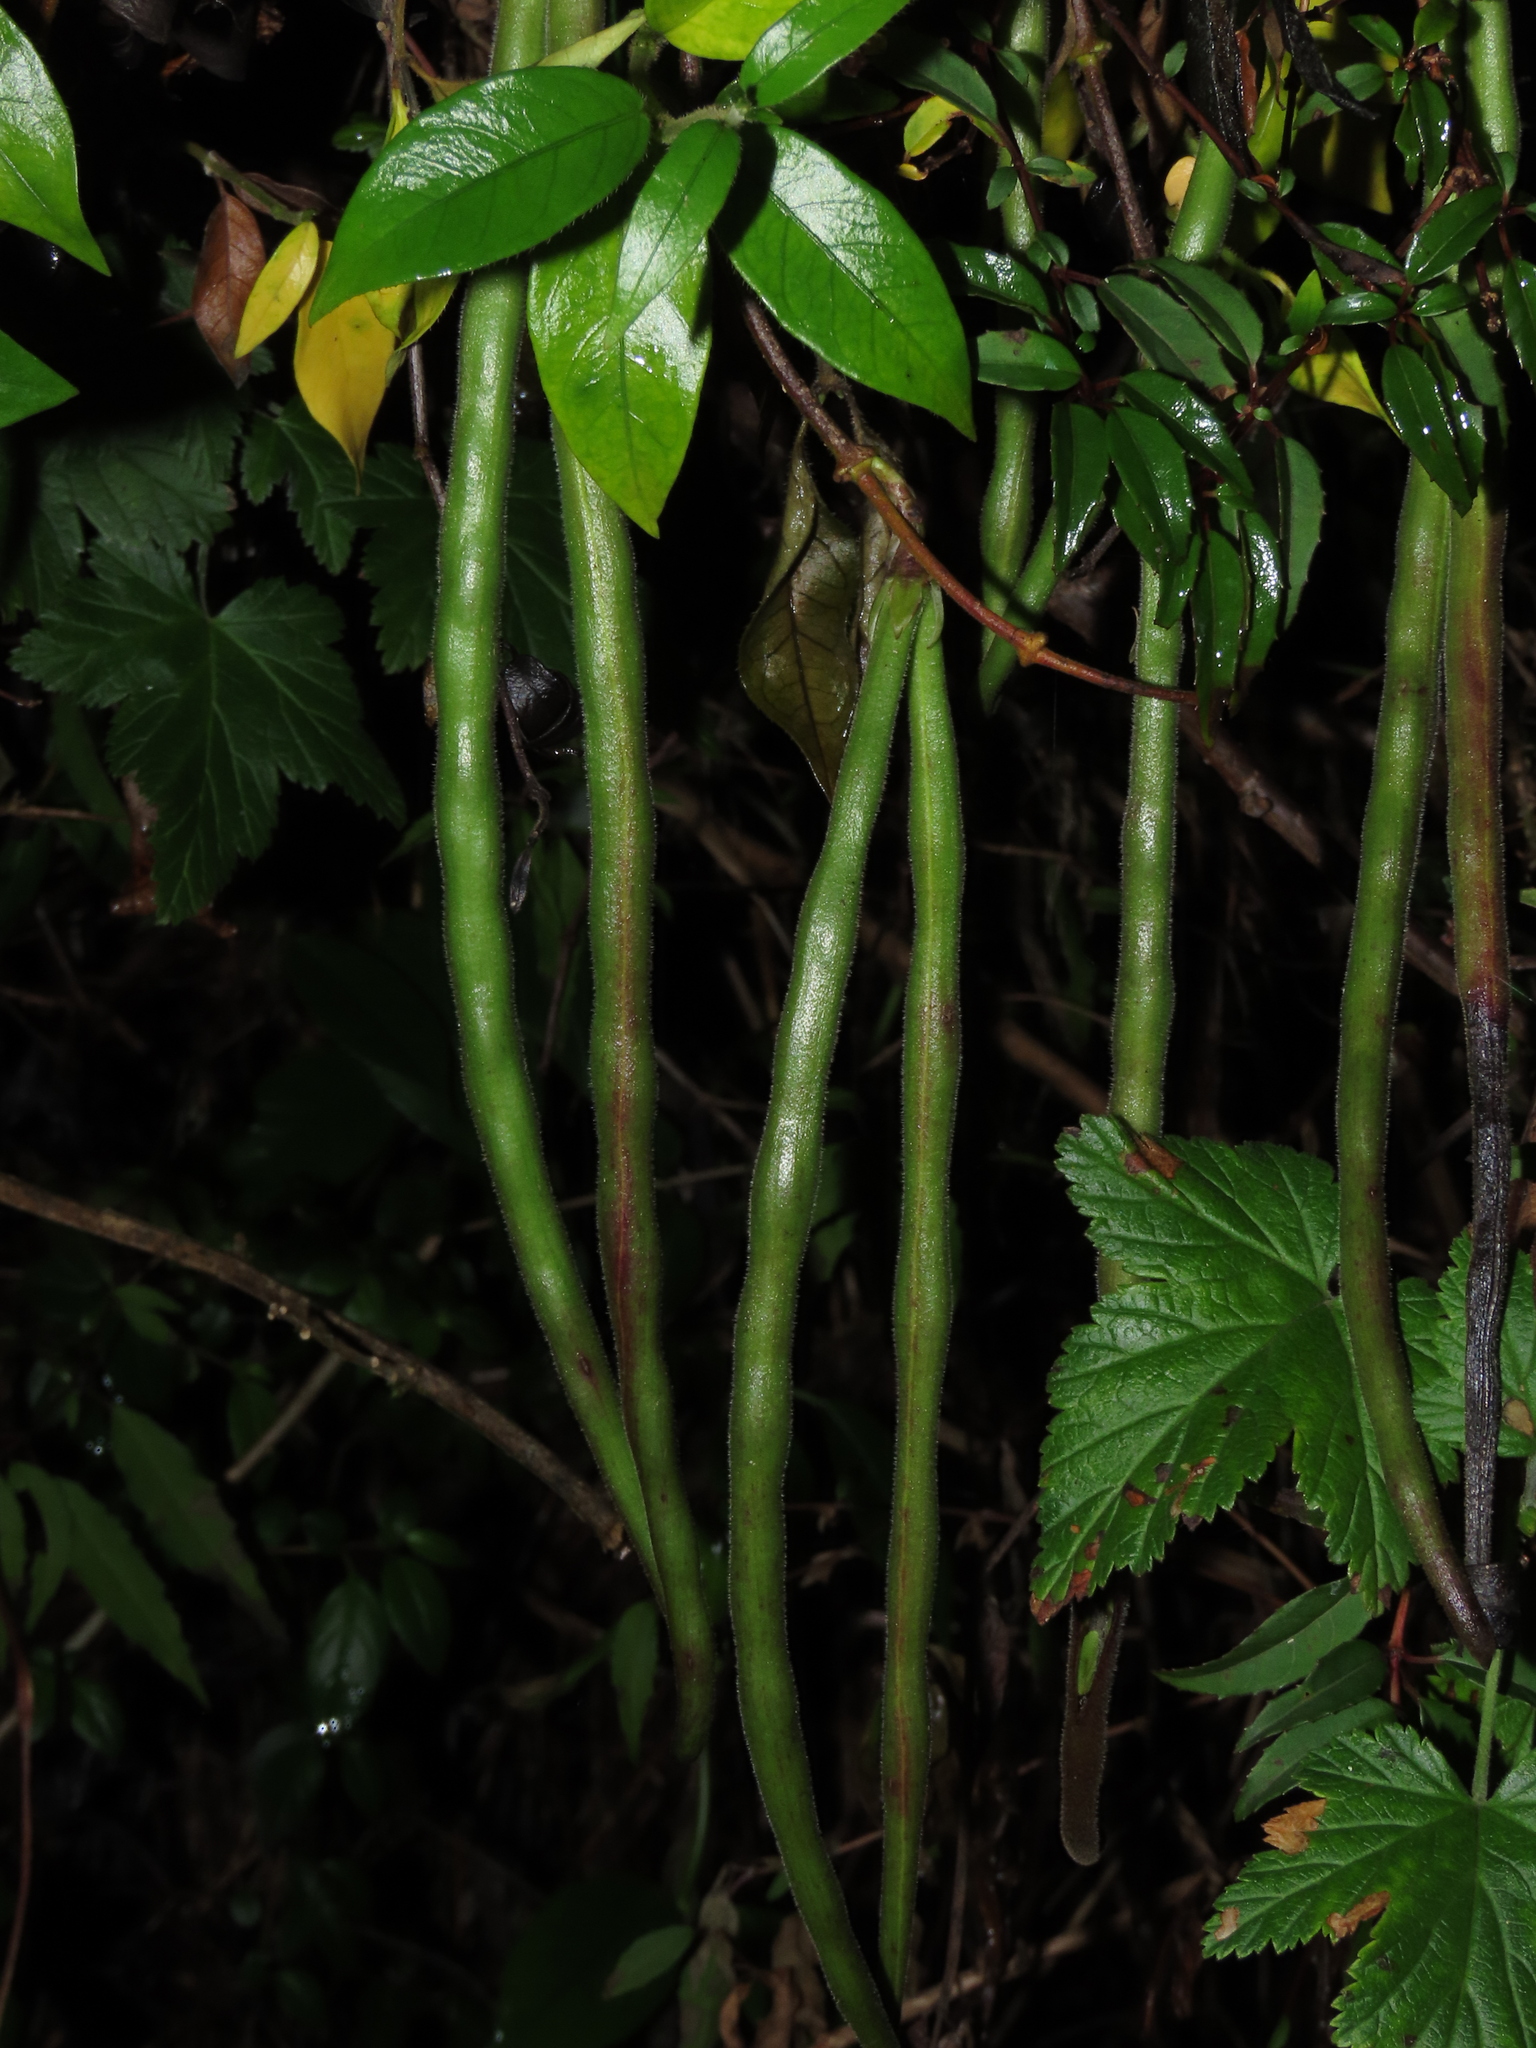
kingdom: Plantae
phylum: Tracheophyta
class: Magnoliopsida
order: Gentianales
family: Apocynaceae
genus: Mandevilla
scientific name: Mandevilla pubescens
